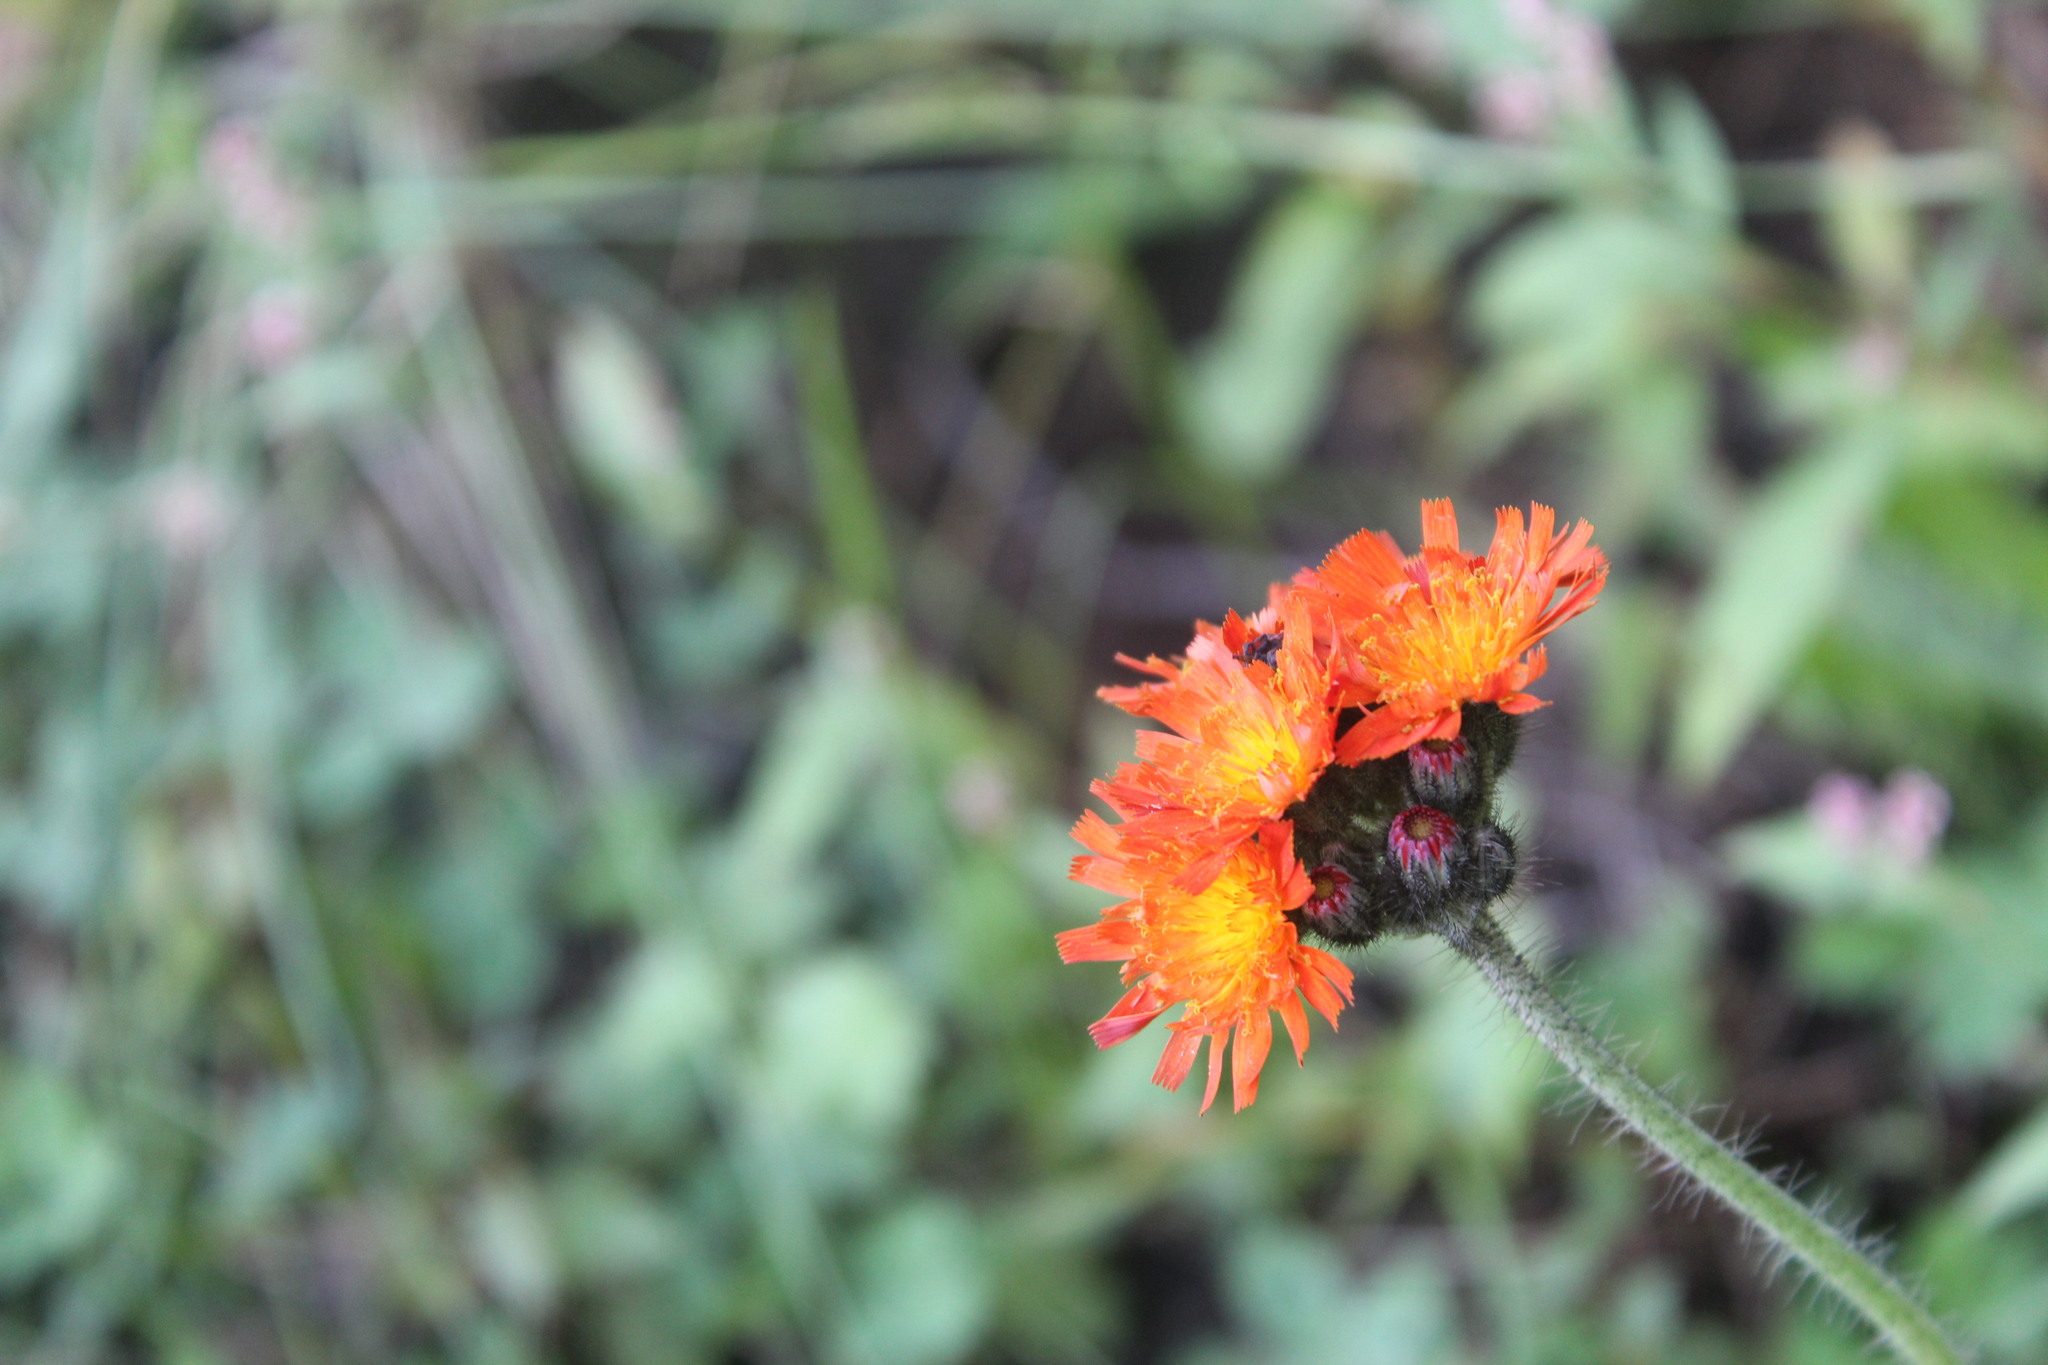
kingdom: Plantae
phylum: Tracheophyta
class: Magnoliopsida
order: Asterales
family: Asteraceae
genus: Pilosella
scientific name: Pilosella aurantiaca
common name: Fox-and-cubs
